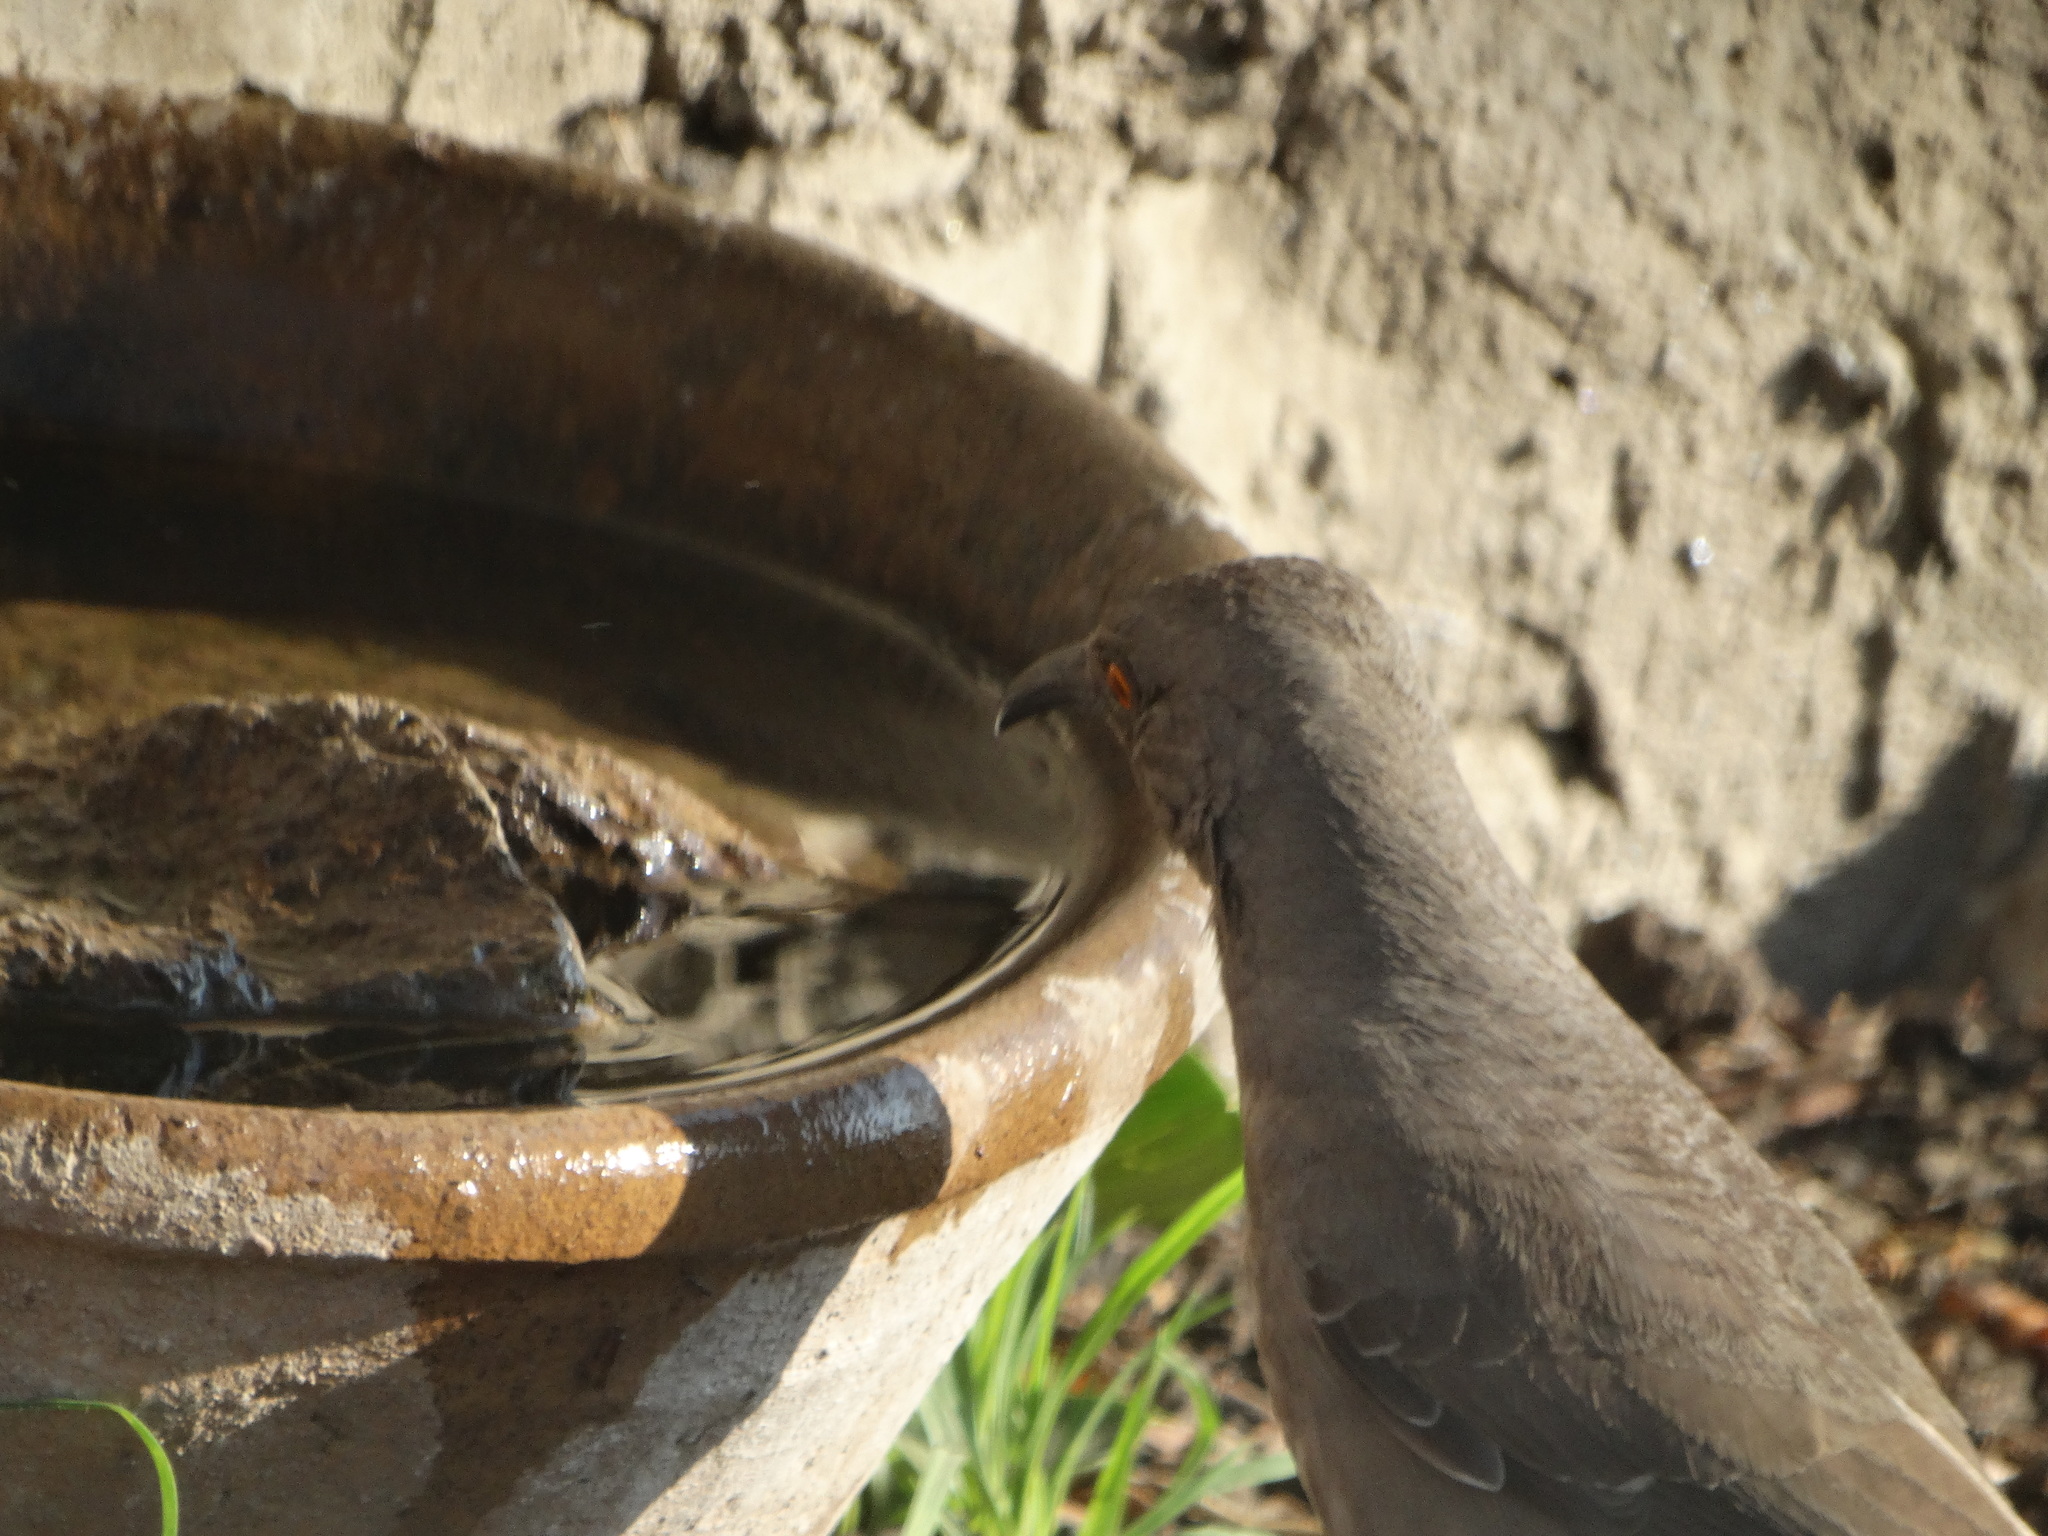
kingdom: Animalia
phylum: Chordata
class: Aves
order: Passeriformes
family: Mimidae
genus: Toxostoma
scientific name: Toxostoma curvirostre
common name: Curve-billed thrasher
